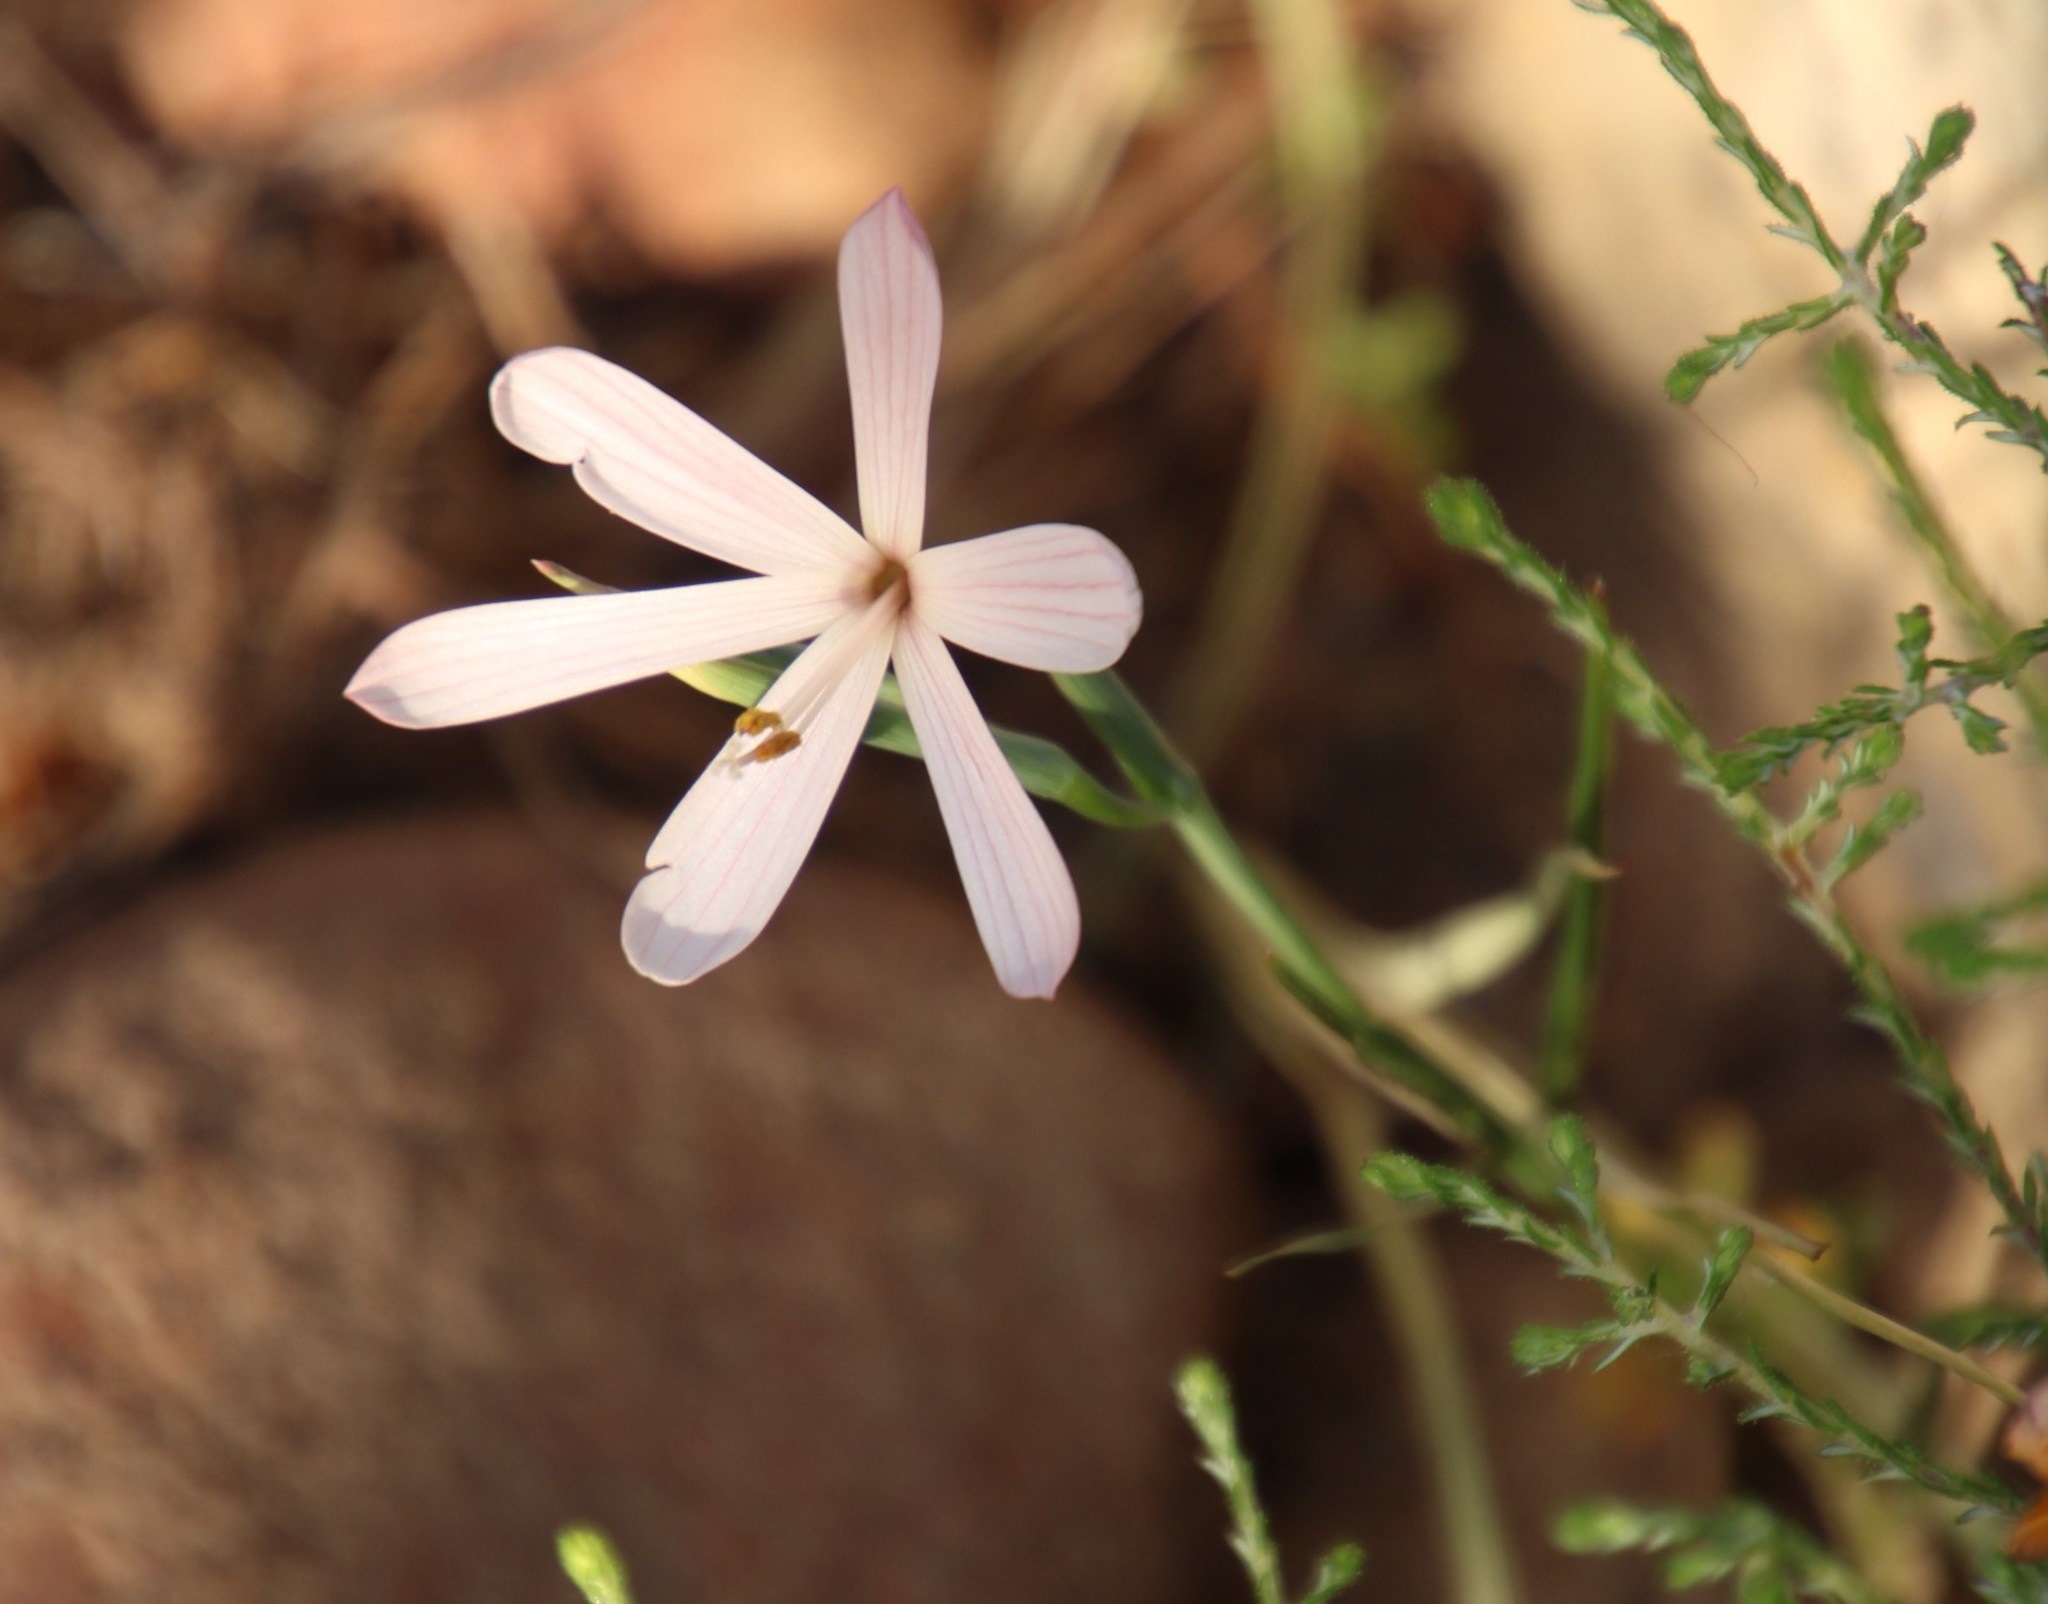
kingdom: Plantae
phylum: Tracheophyta
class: Liliopsida
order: Asparagales
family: Iridaceae
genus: Geissorhiza
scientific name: Geissorhiza bonae-spei
